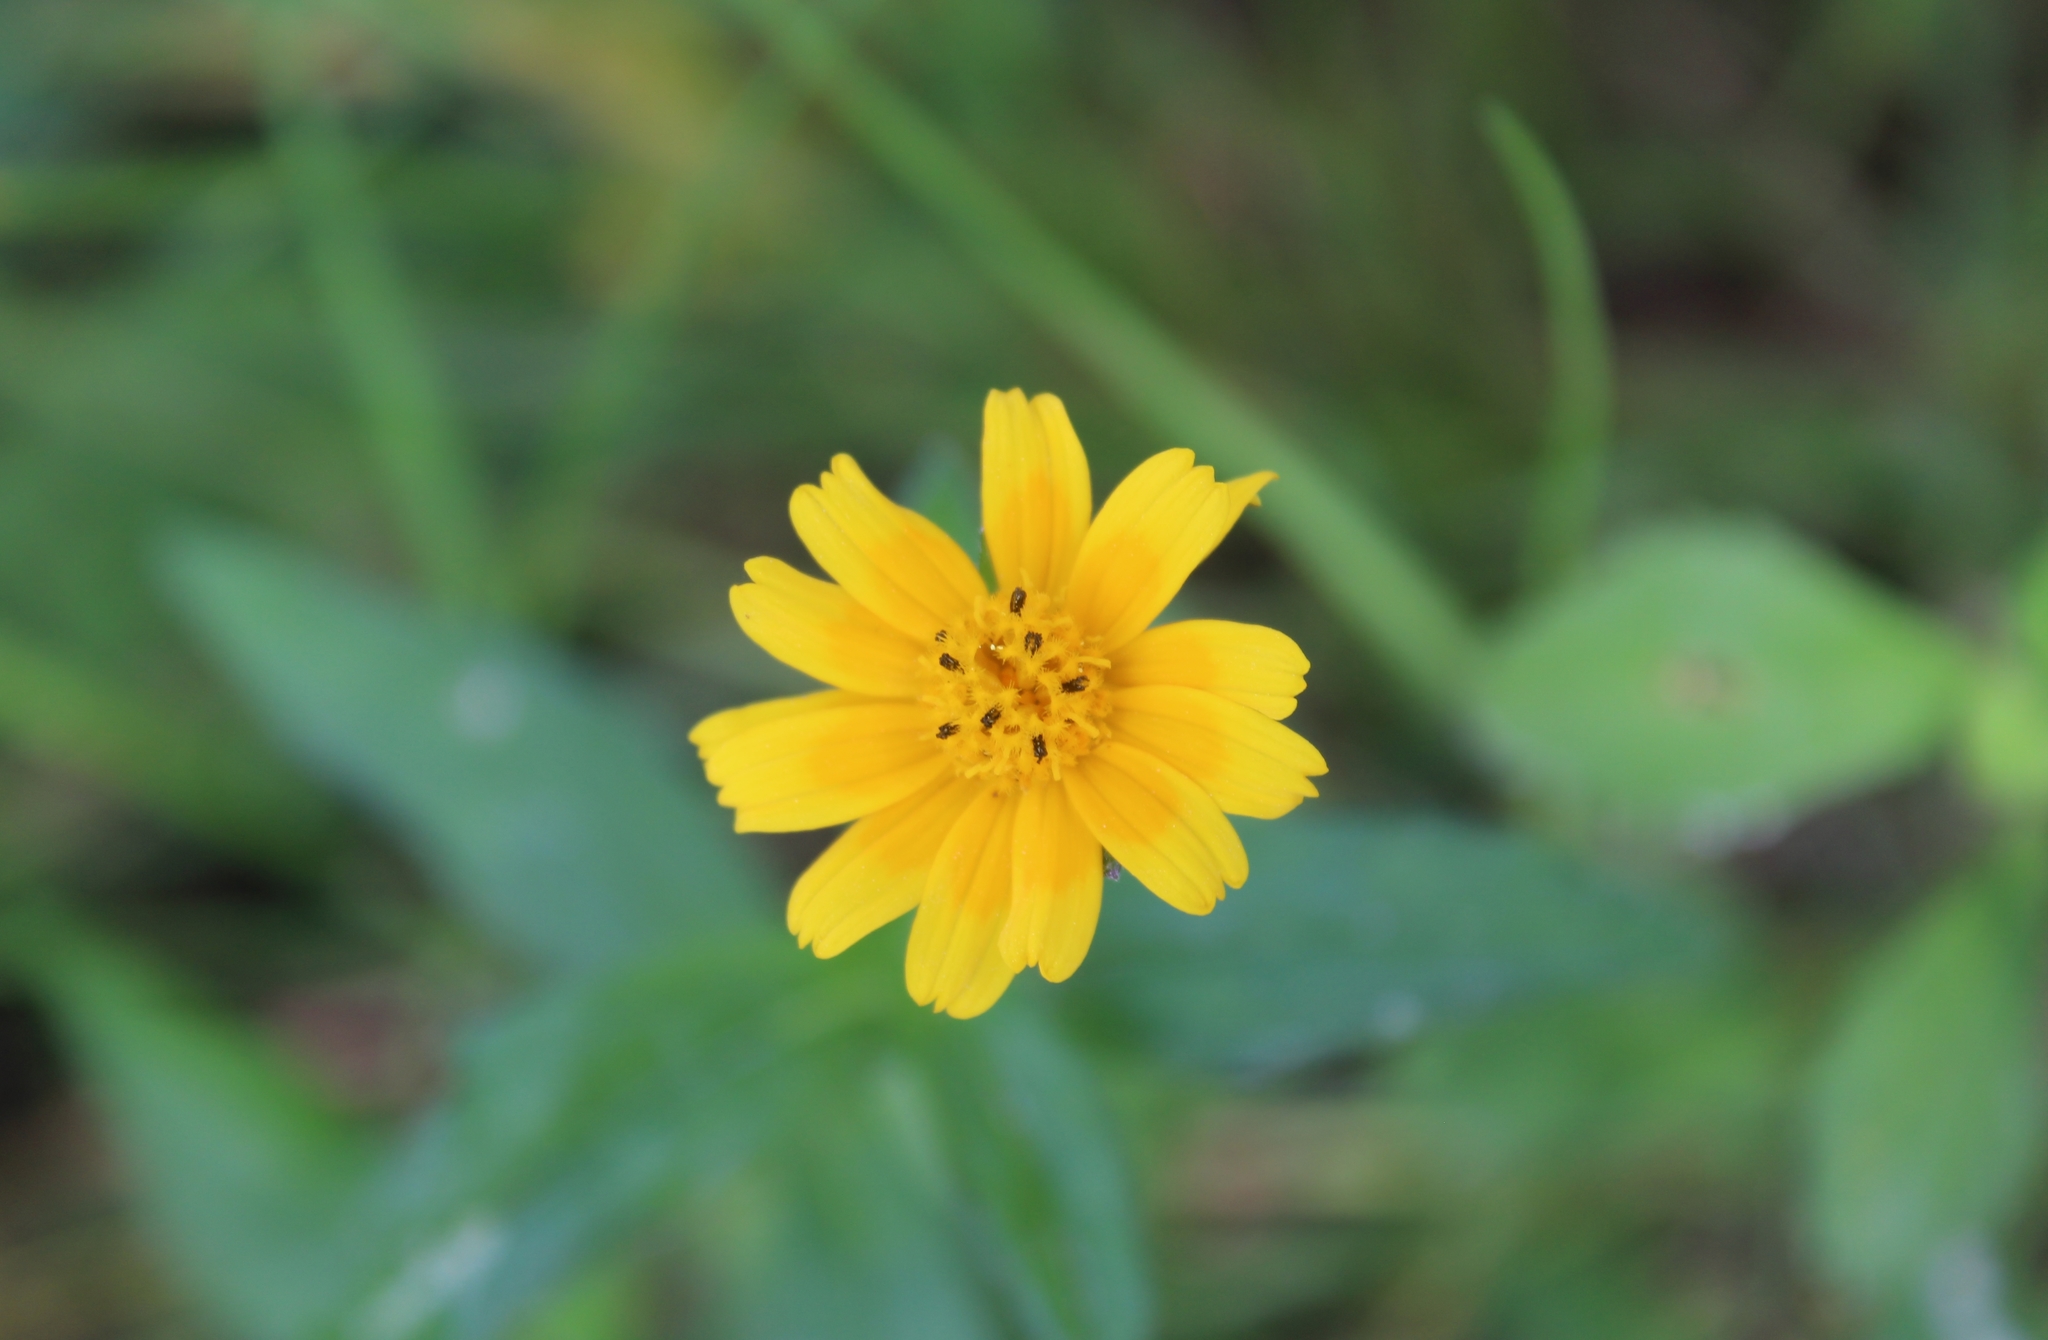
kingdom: Plantae
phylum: Tracheophyta
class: Magnoliopsida
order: Asterales
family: Asteraceae
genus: Sphagneticola
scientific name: Sphagneticola trilobata
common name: Bay biscayne creeping-oxeye
